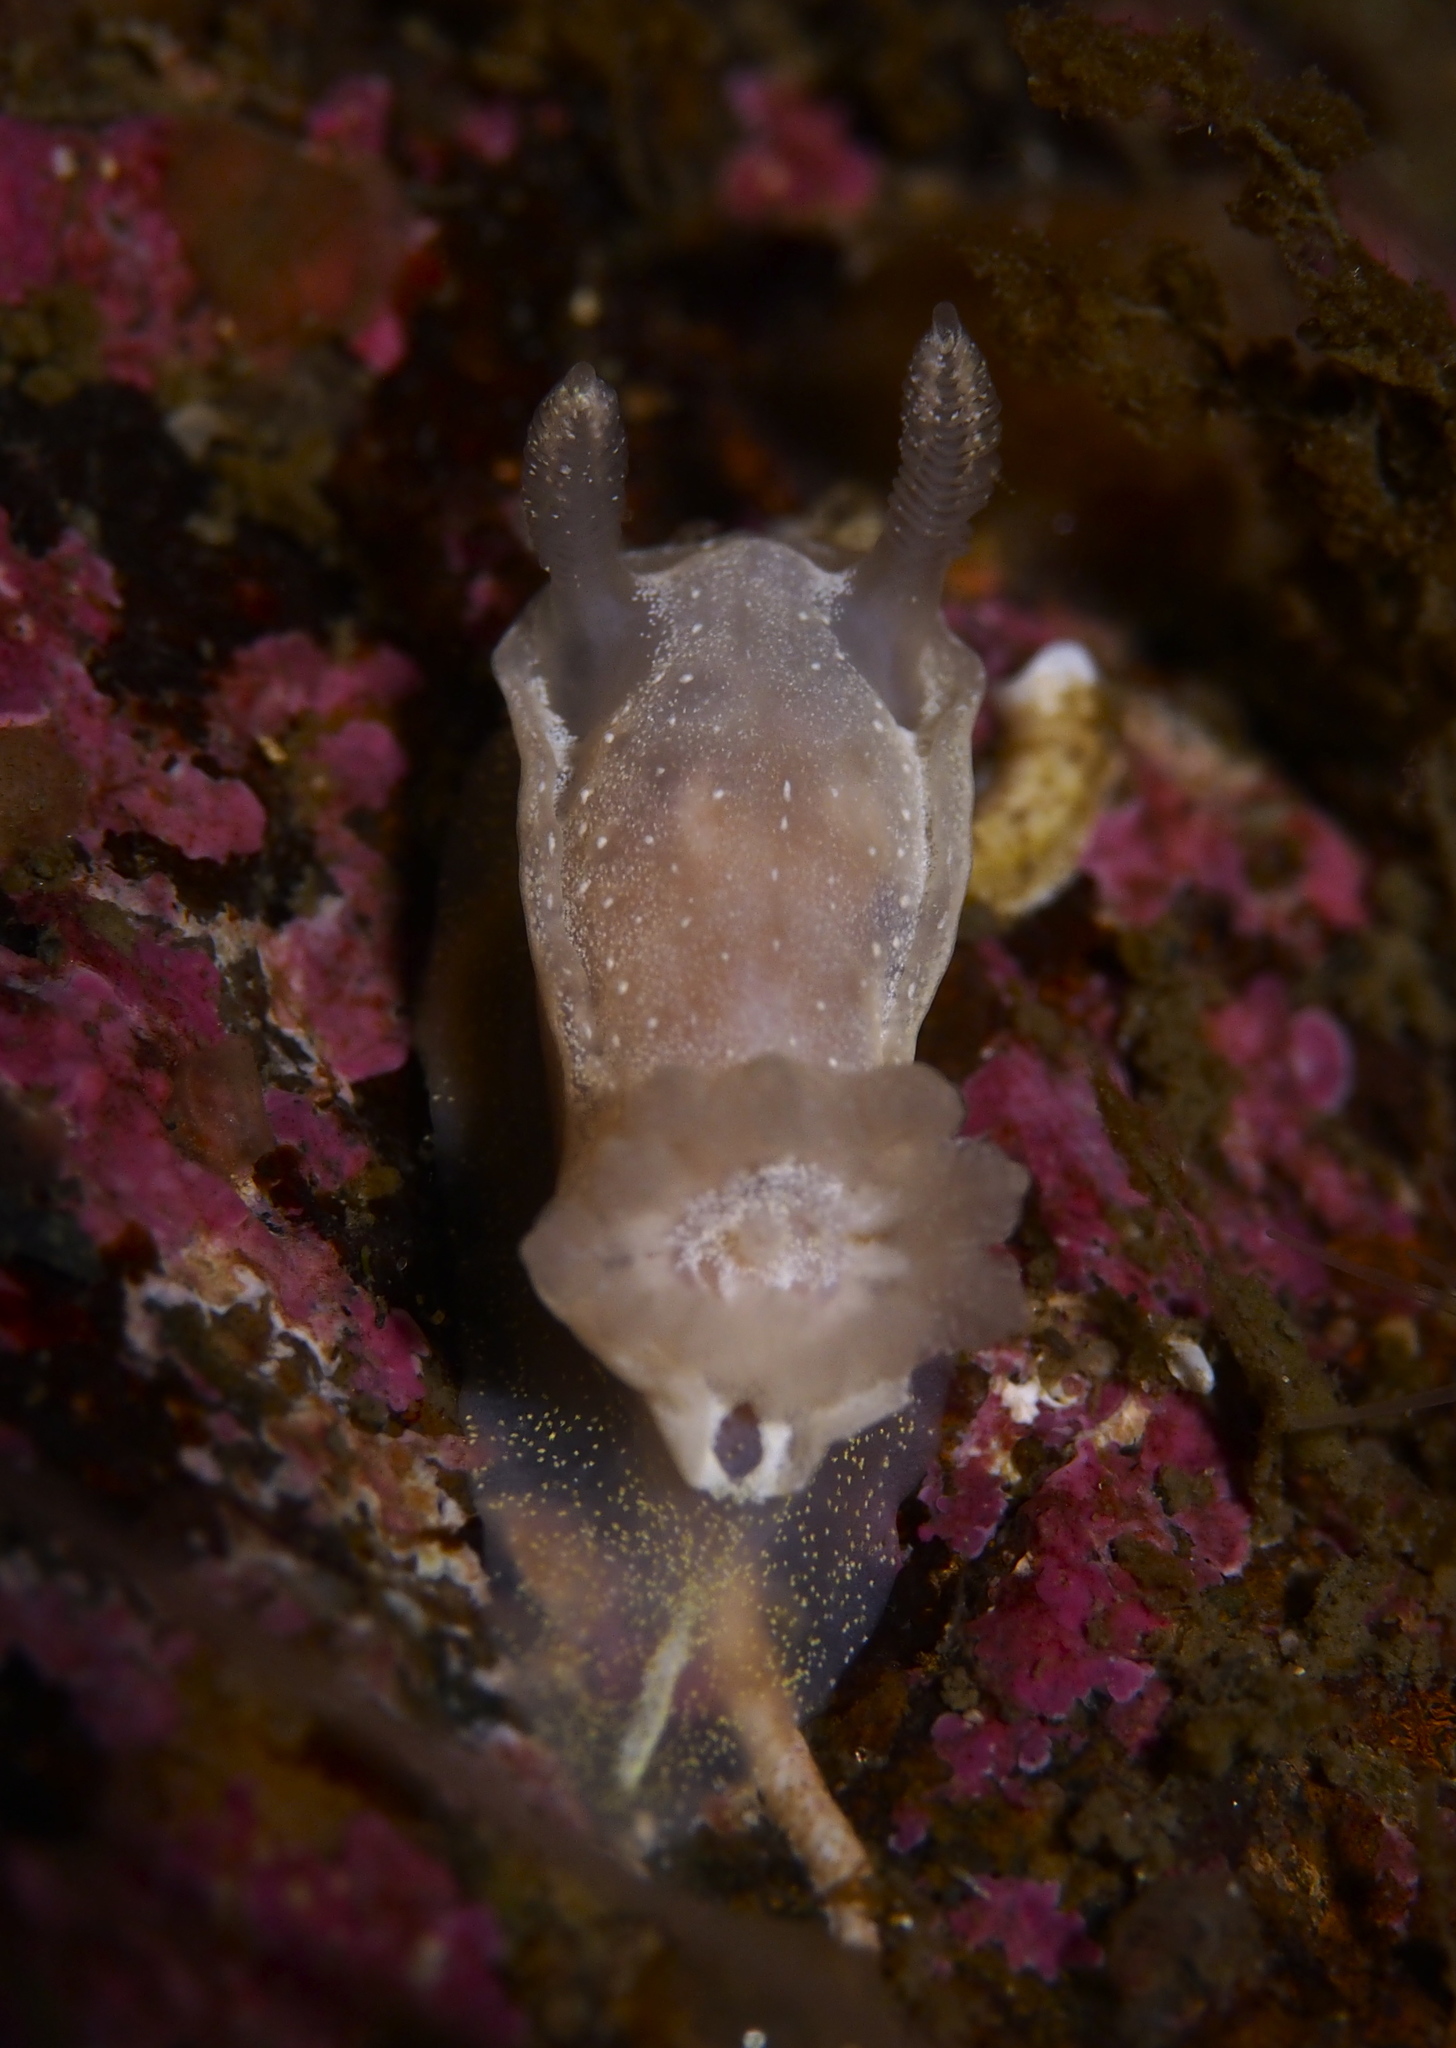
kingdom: Animalia
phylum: Mollusca
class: Gastropoda
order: Nudibranchia
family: Goniodorididae
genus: Okenia
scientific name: Okenia
